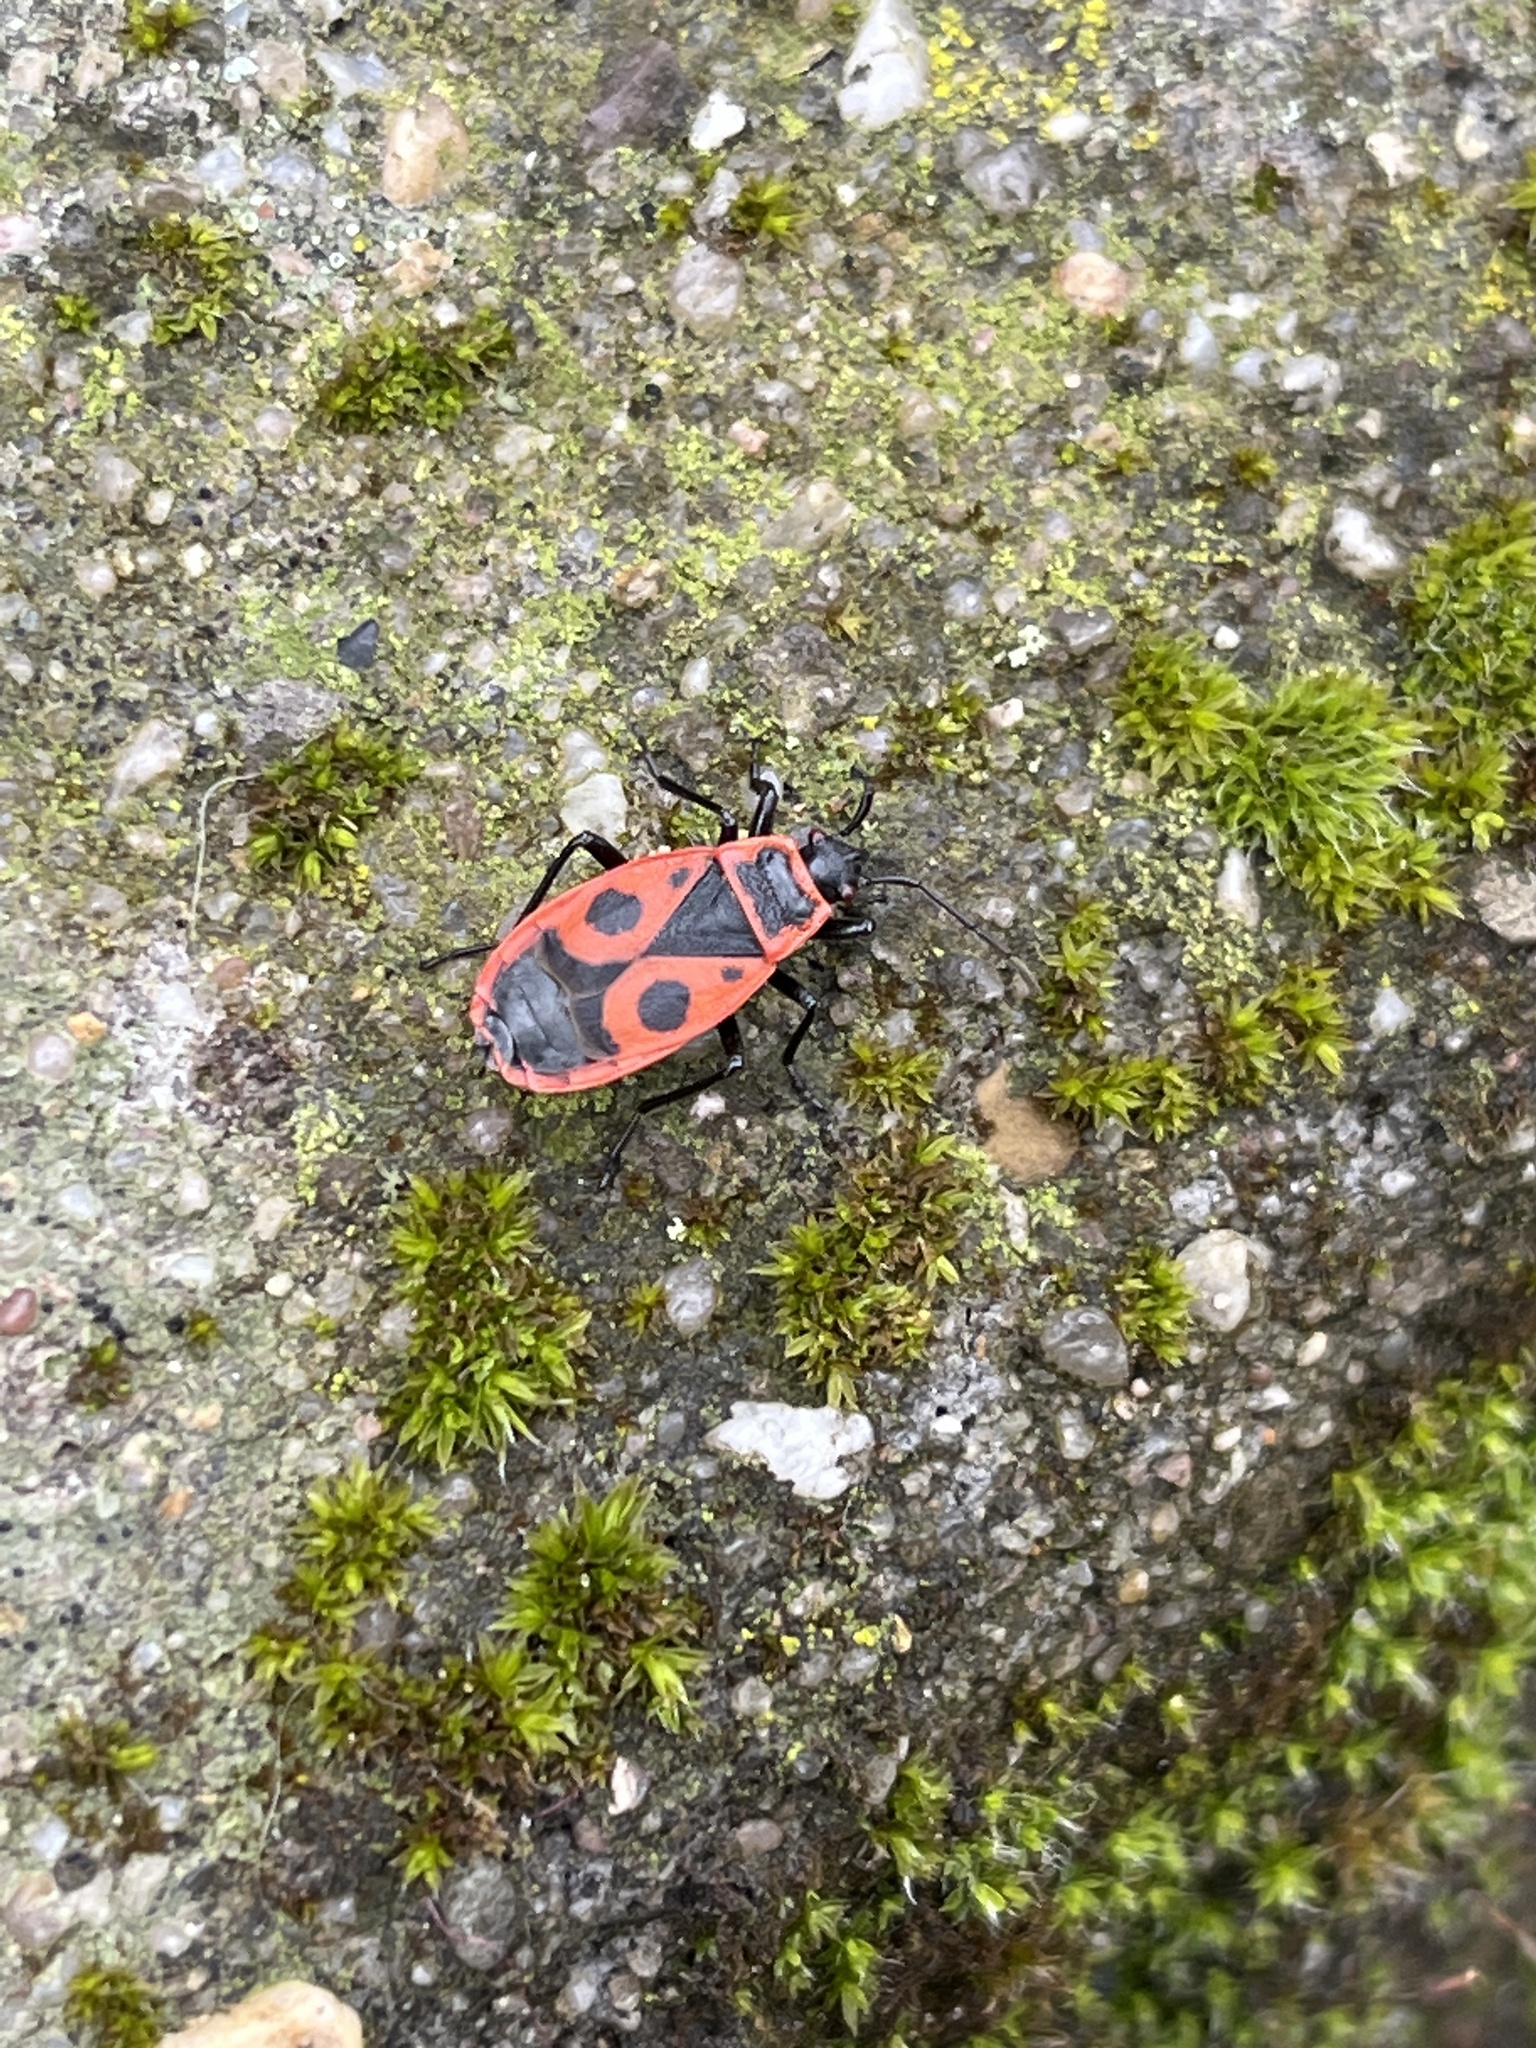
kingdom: Animalia
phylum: Arthropoda
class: Insecta
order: Hemiptera
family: Pyrrhocoridae
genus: Pyrrhocoris
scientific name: Pyrrhocoris apterus
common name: Firebug
